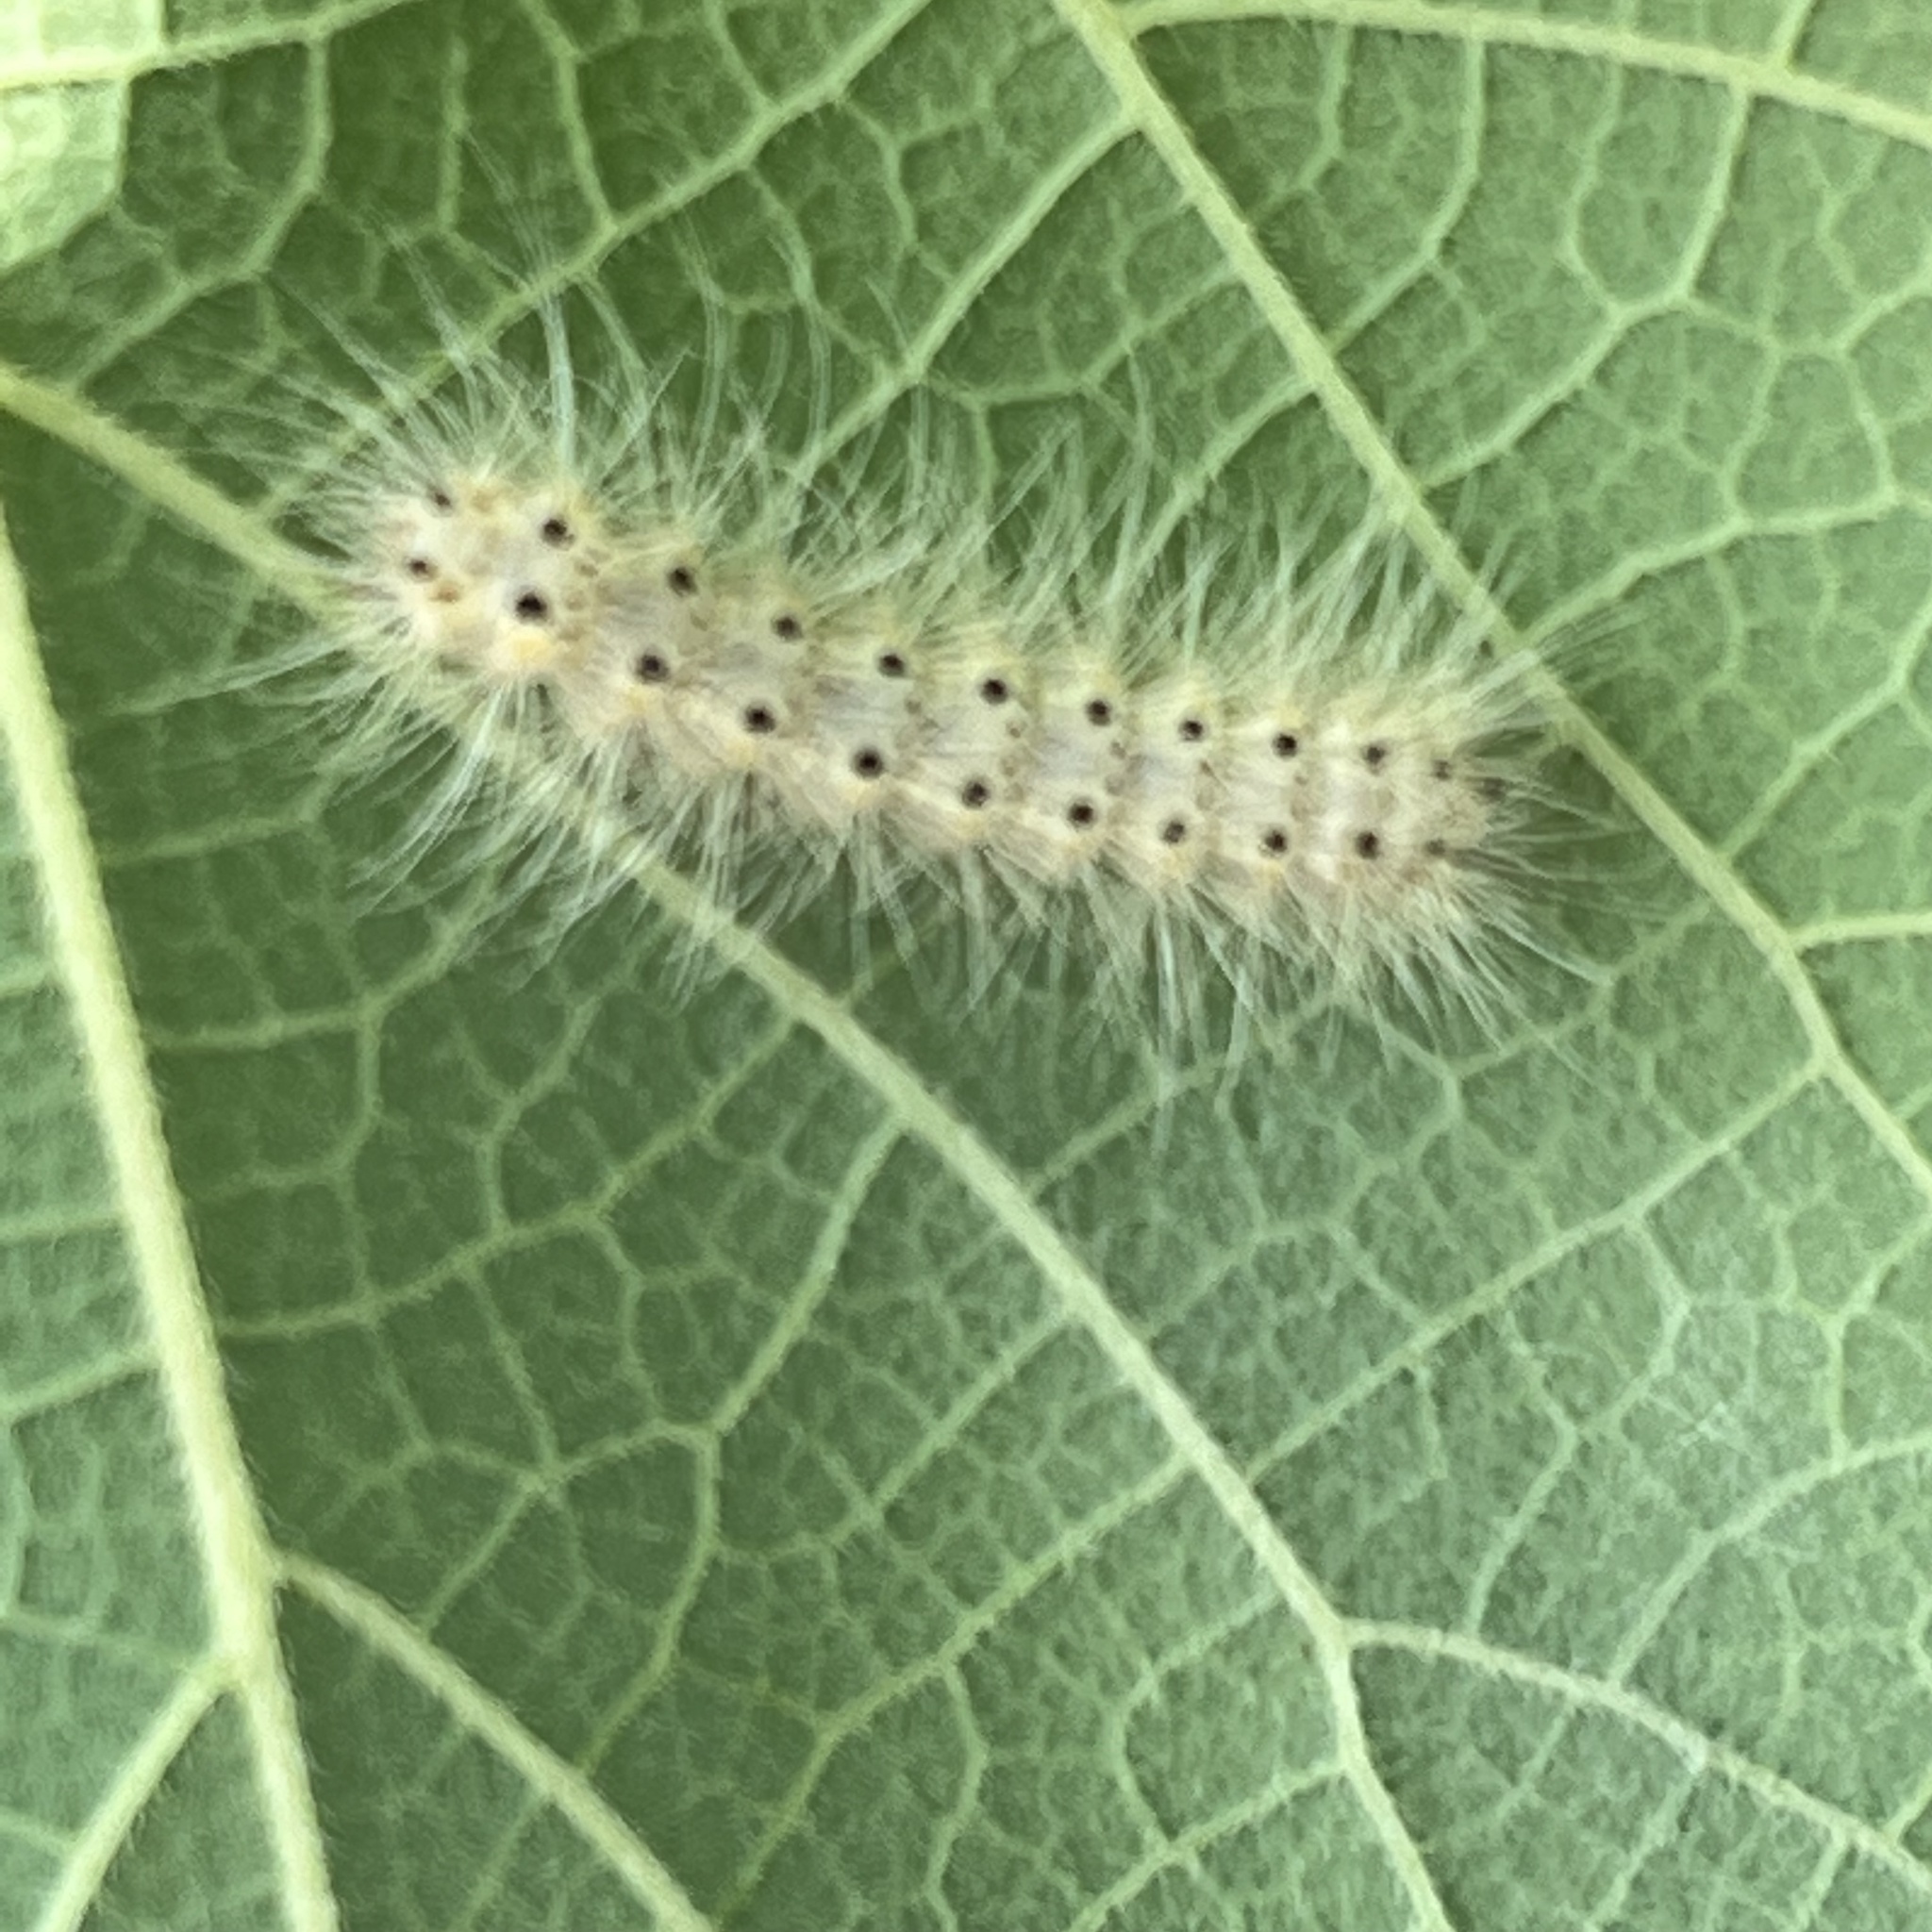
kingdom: Animalia
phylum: Arthropoda
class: Insecta
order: Lepidoptera
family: Erebidae
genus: Hyphantria
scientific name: Hyphantria cunea
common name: American white moth
